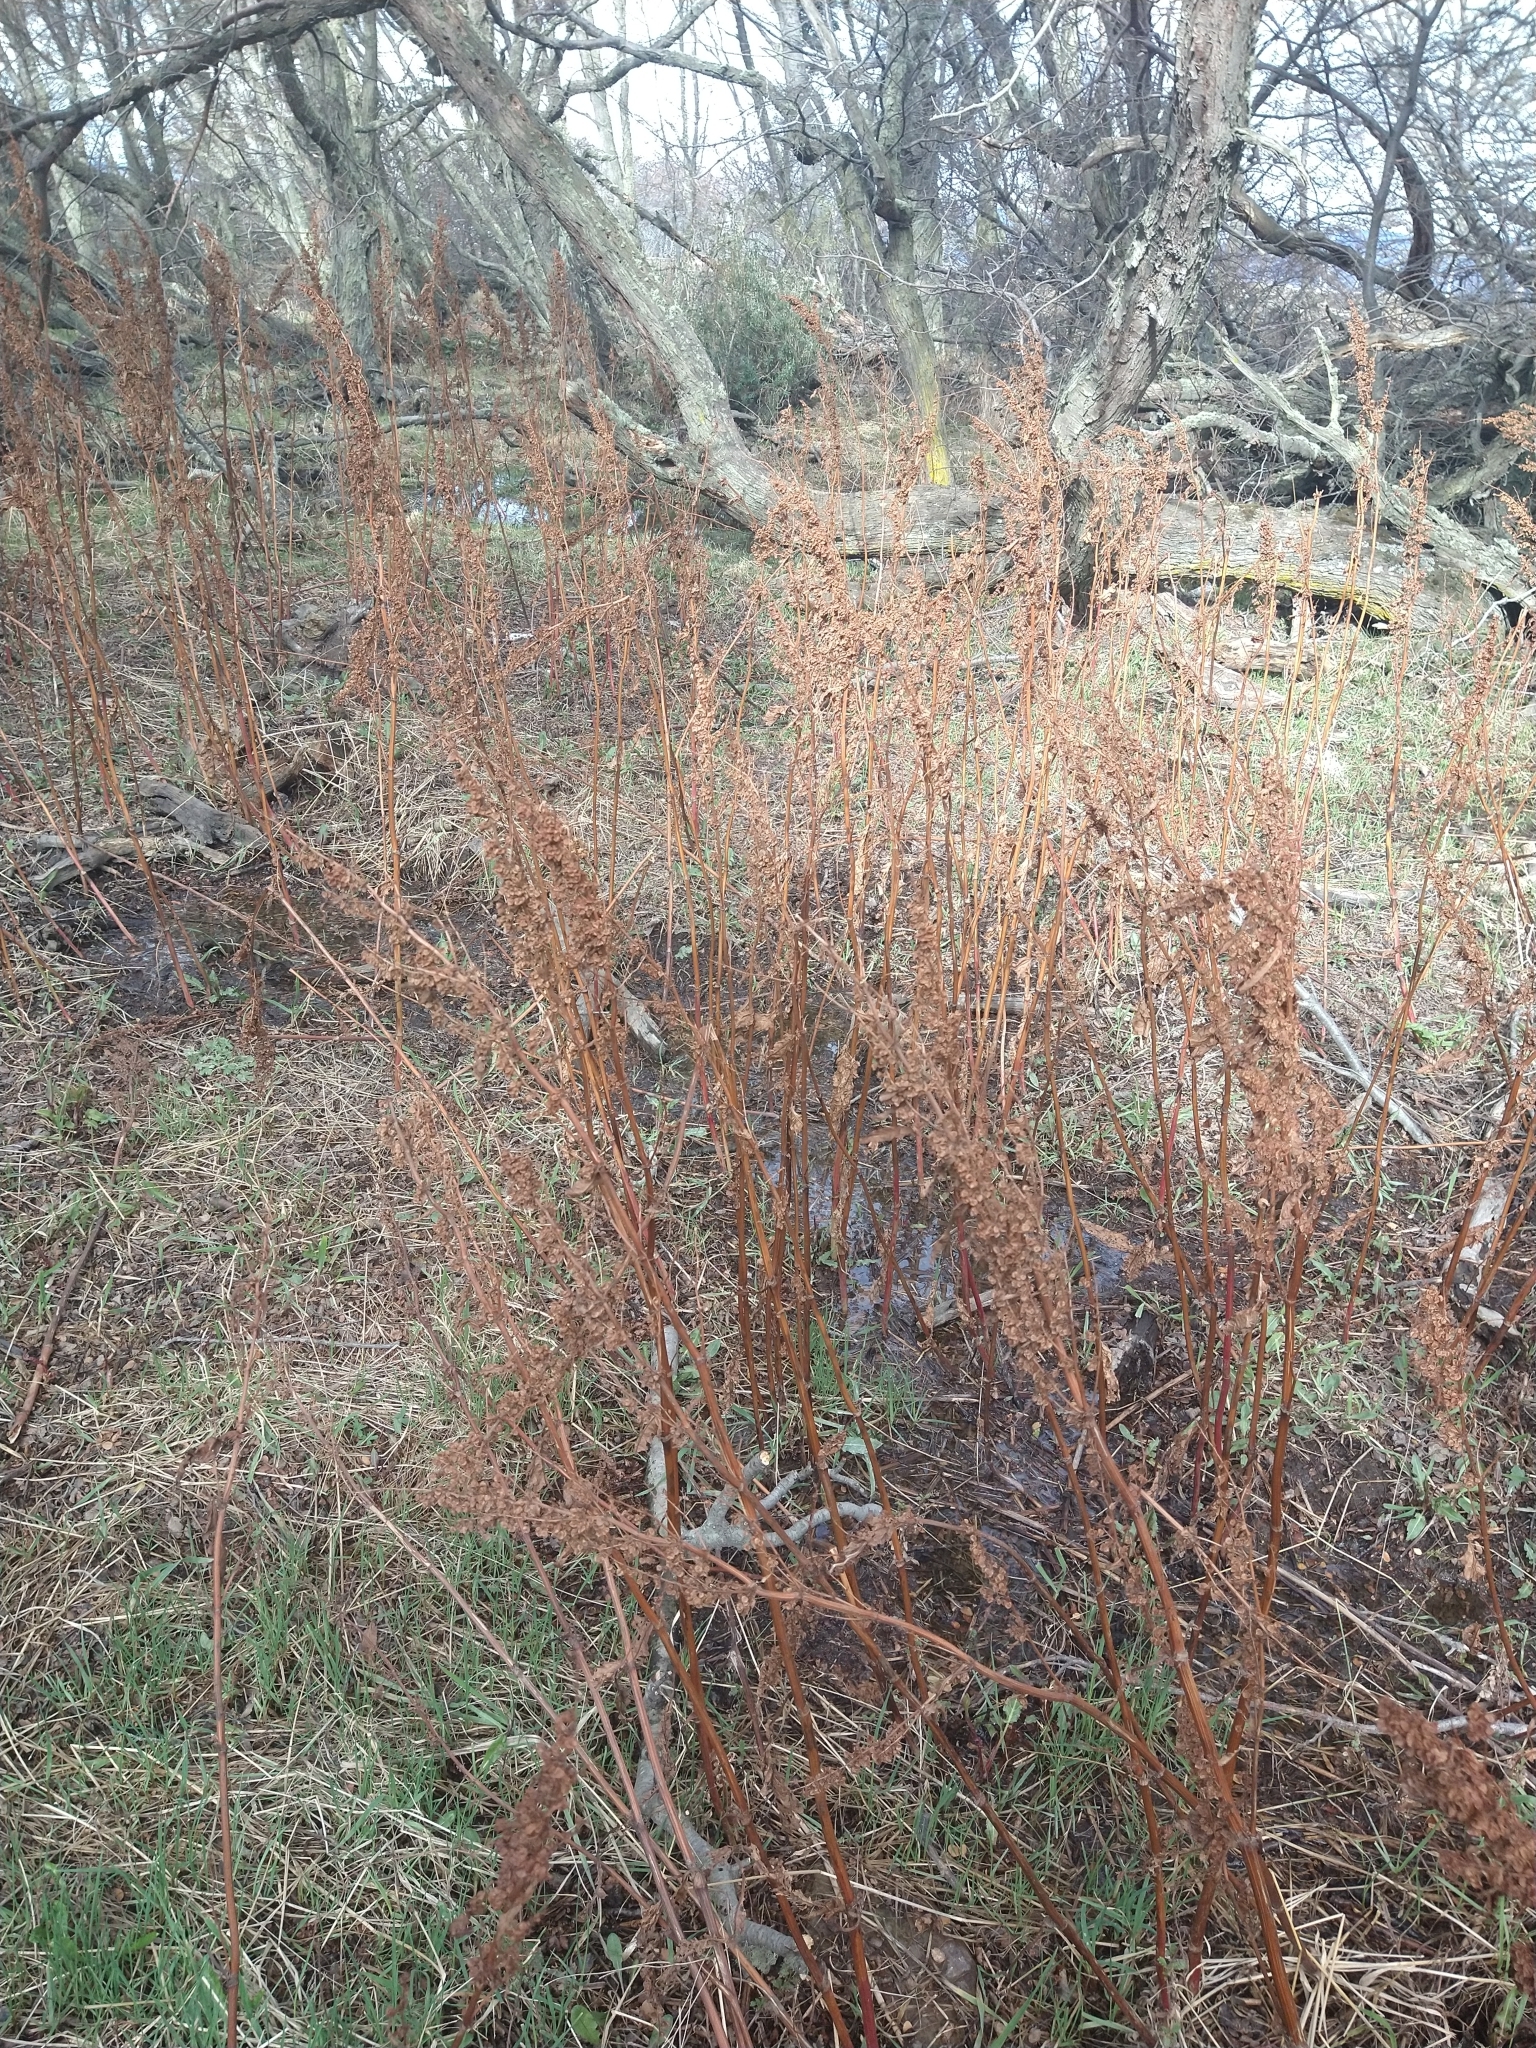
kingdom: Plantae
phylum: Tracheophyta
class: Magnoliopsida
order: Caryophyllales
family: Polygonaceae
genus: Rumex
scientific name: Rumex crispus
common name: Curled dock
